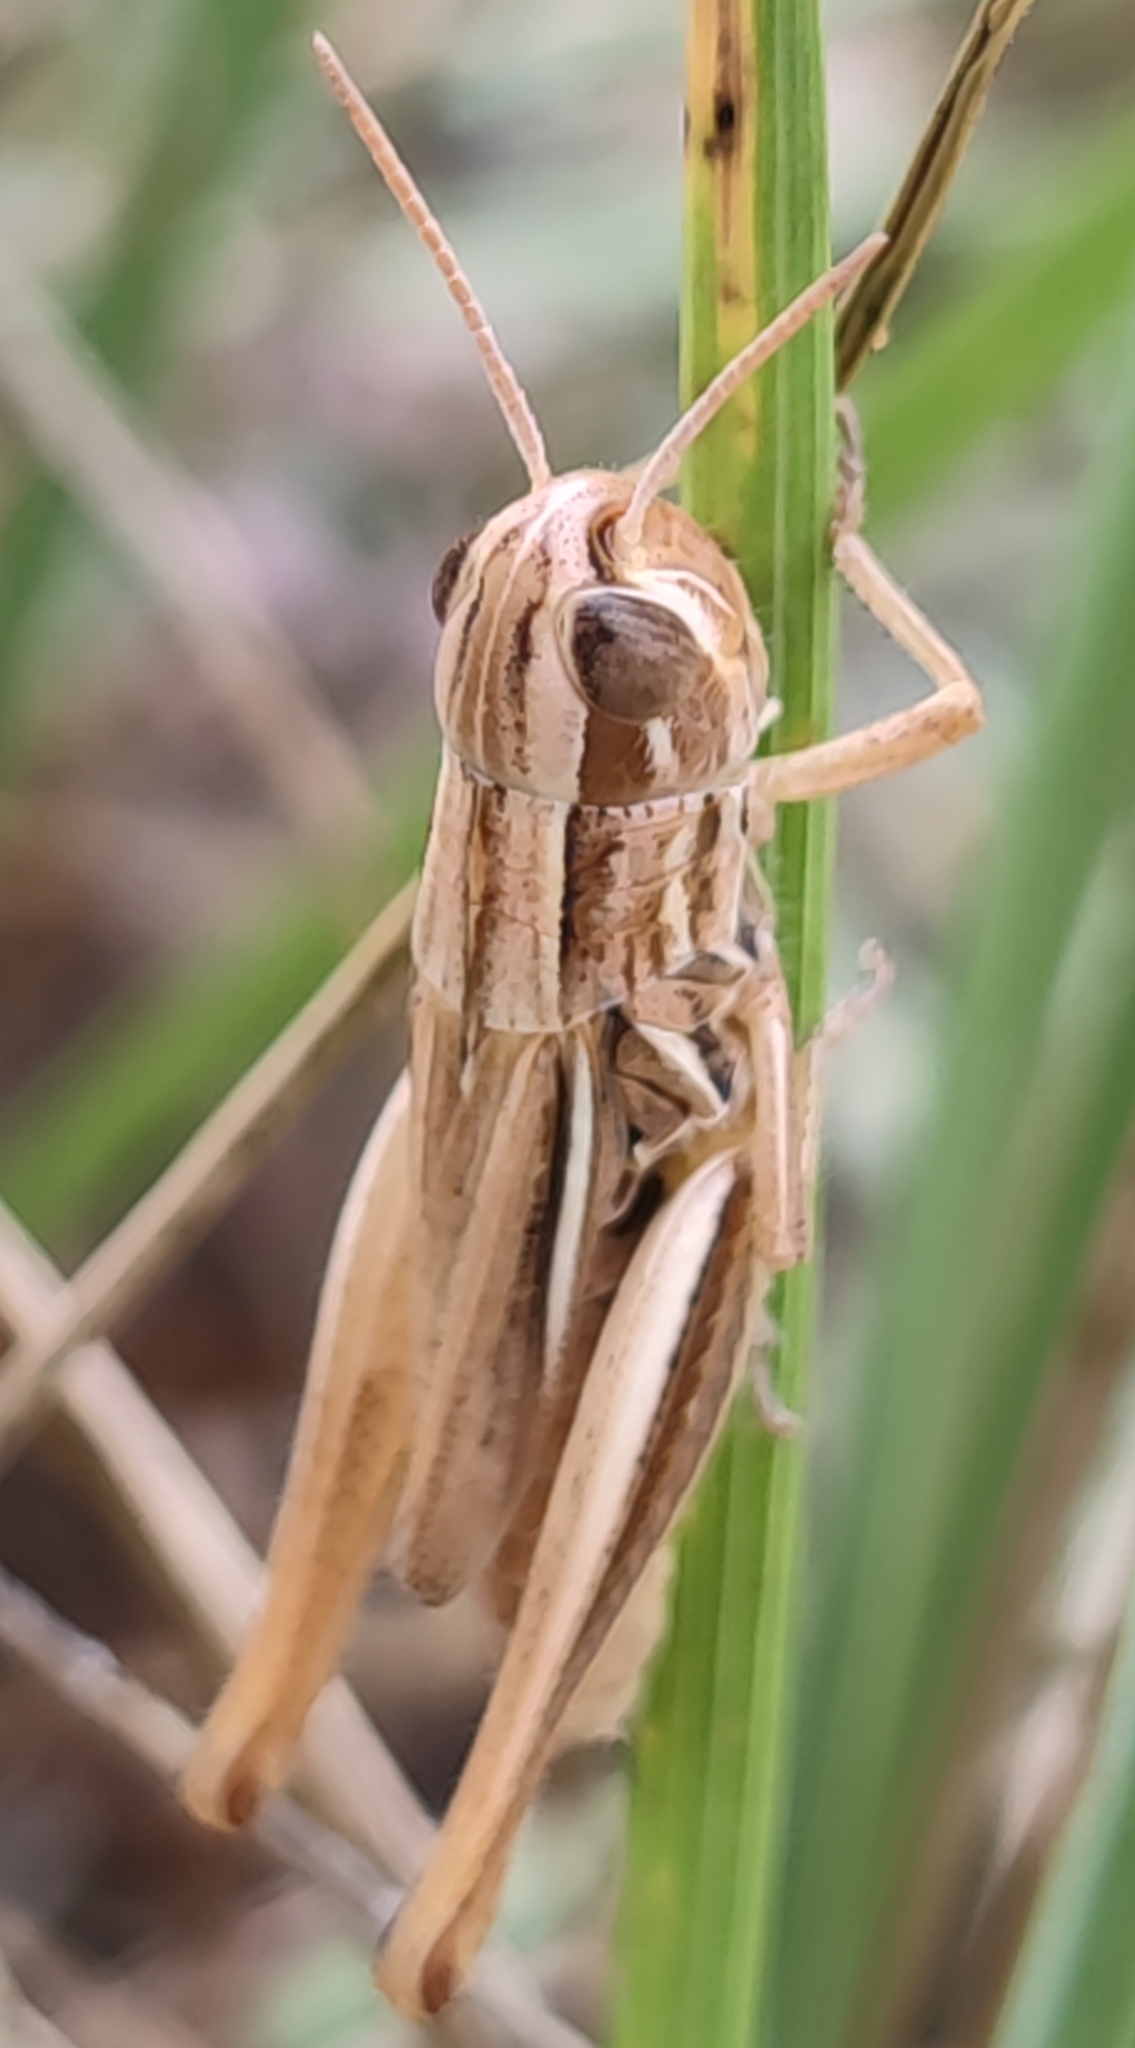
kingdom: Animalia
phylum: Arthropoda
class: Insecta
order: Orthoptera
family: Acrididae
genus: Euchorthippus
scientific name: Euchorthippus declivus
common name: Common straw grasshopper
